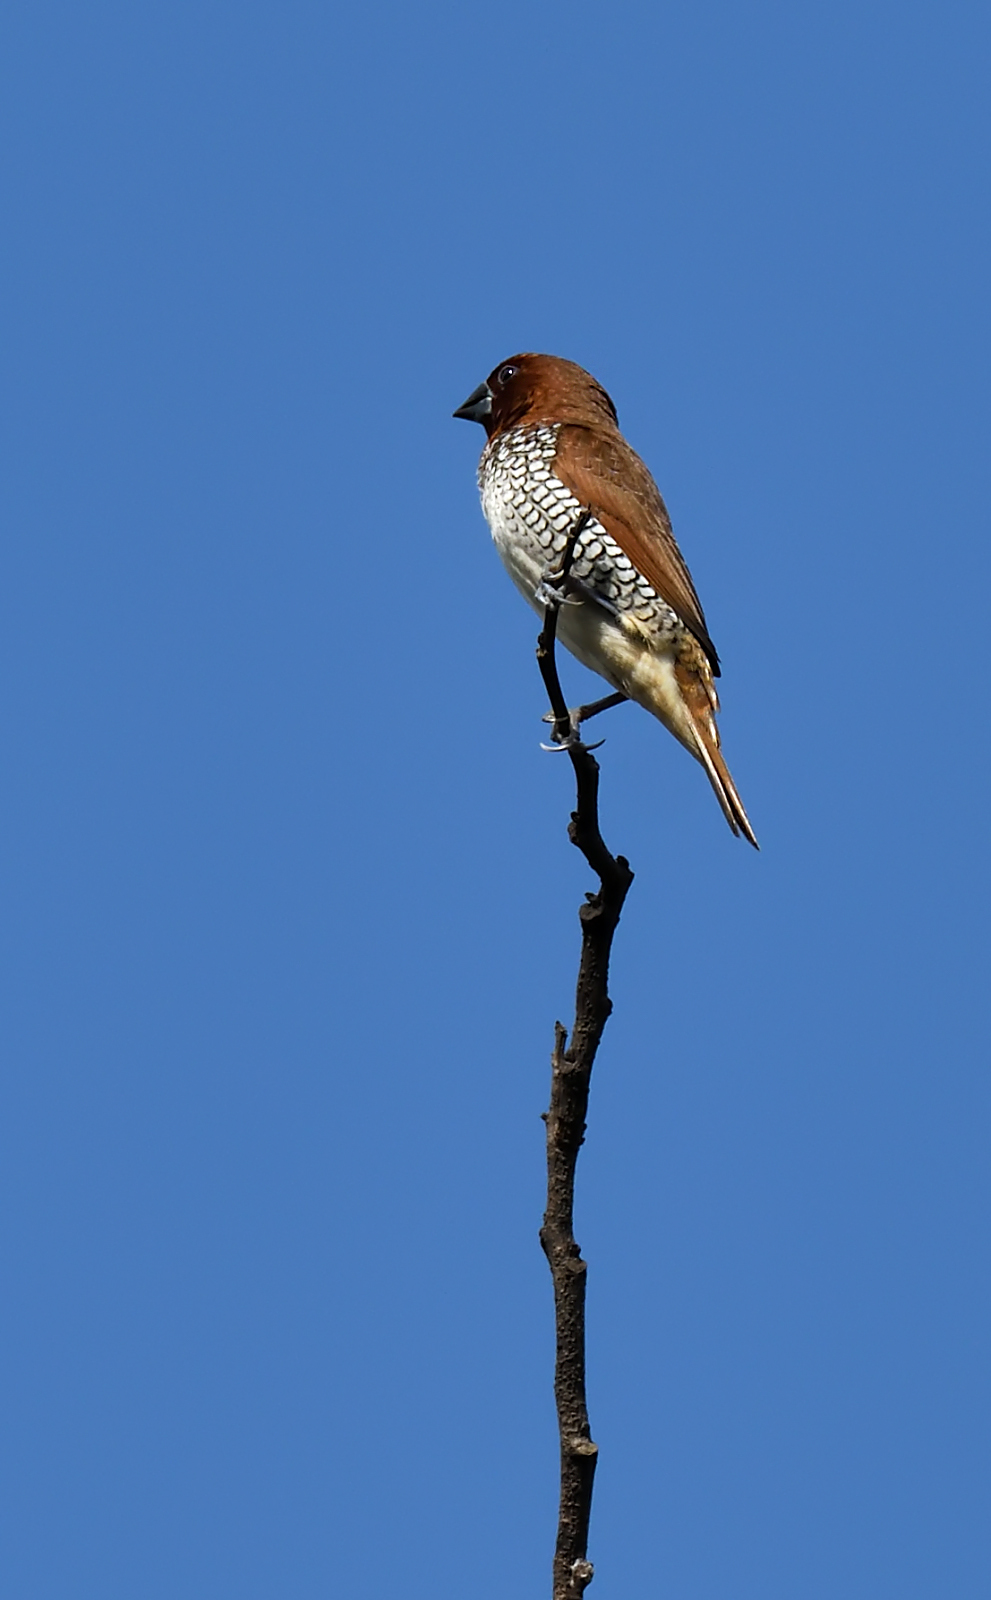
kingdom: Animalia
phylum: Chordata
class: Aves
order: Passeriformes
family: Estrildidae
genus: Lonchura
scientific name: Lonchura punctulata
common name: Scaly-breasted munia
